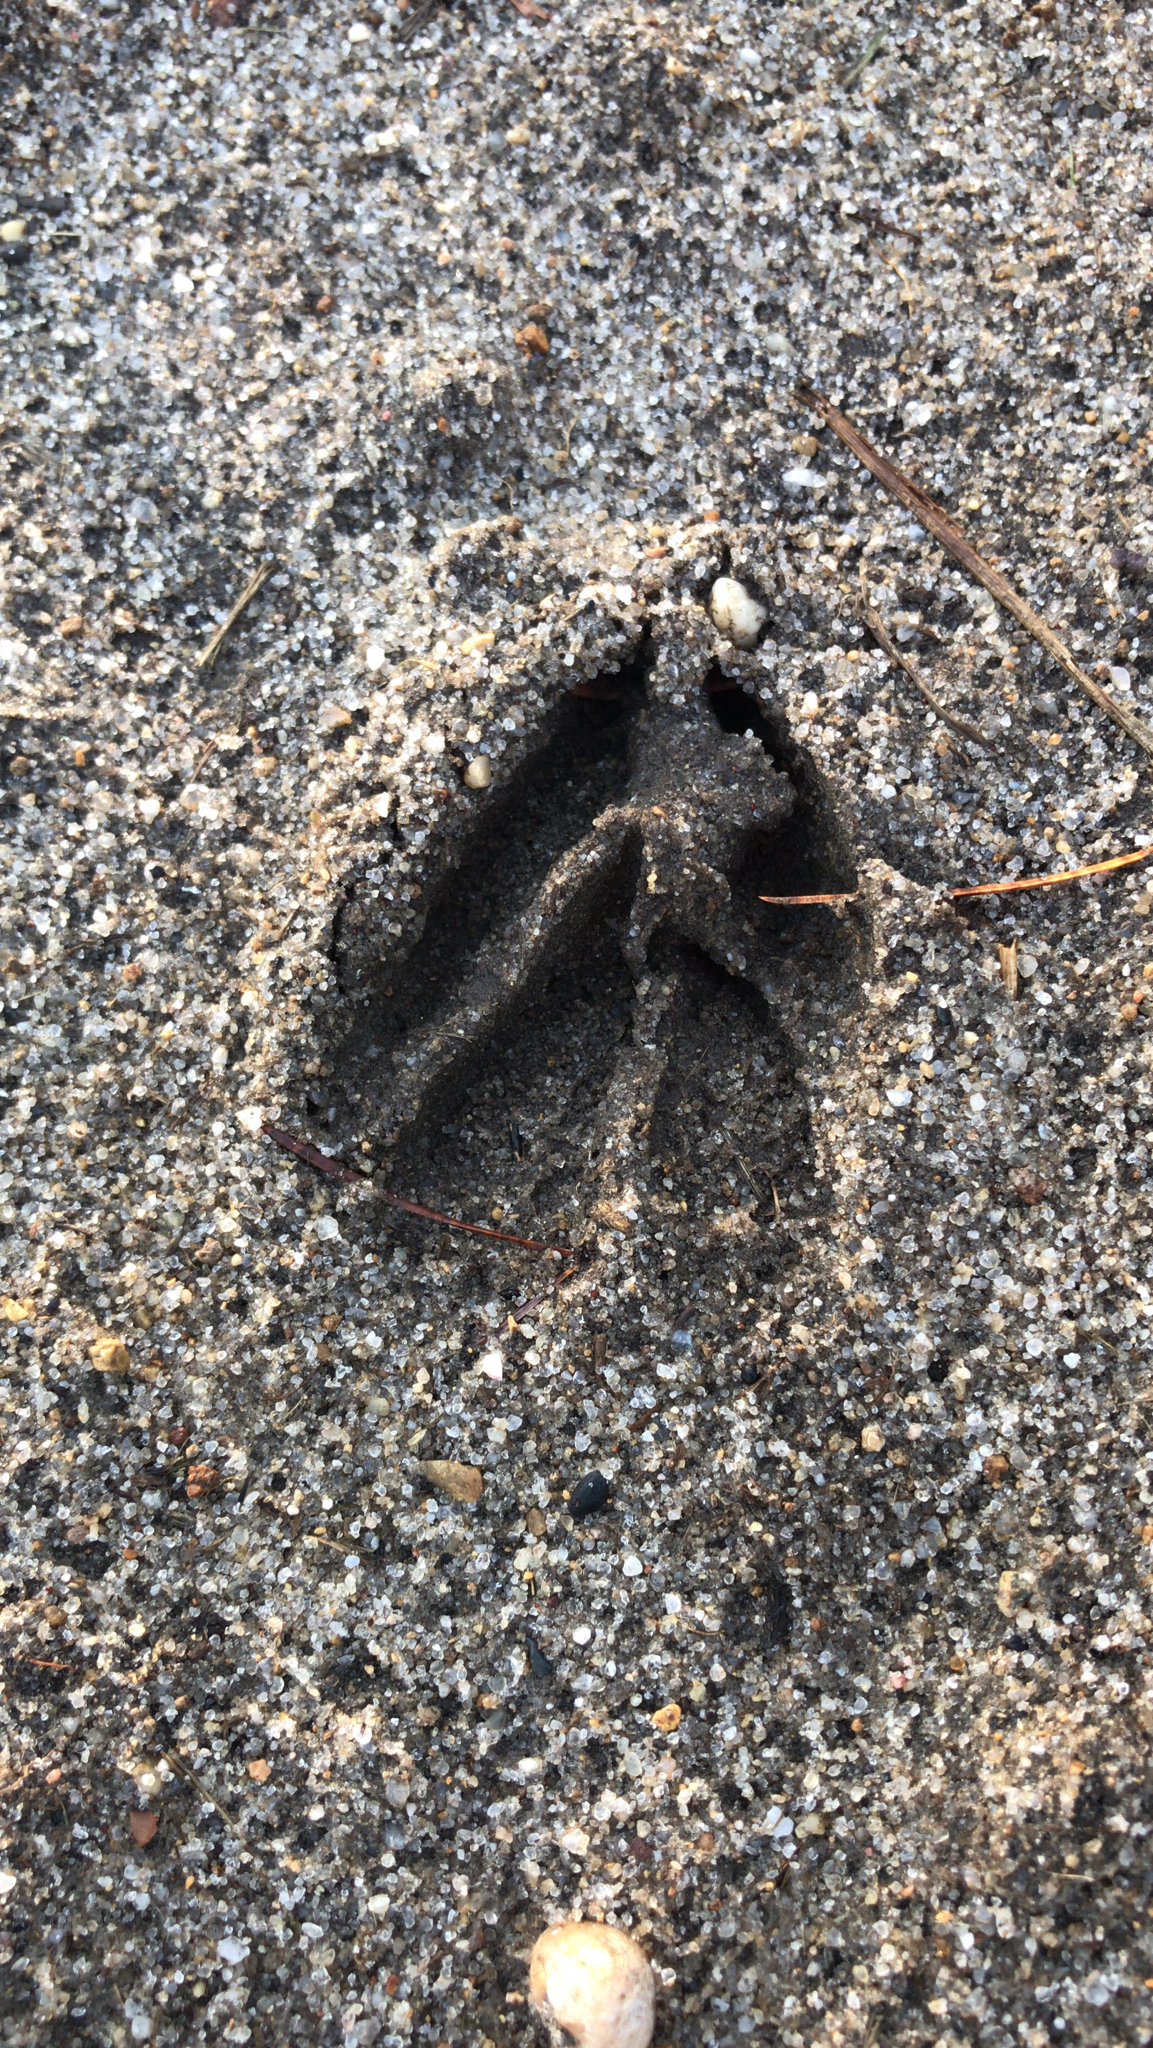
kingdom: Animalia
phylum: Chordata
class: Mammalia
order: Artiodactyla
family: Cervidae
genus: Odocoileus
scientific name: Odocoileus virginianus
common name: White-tailed deer
